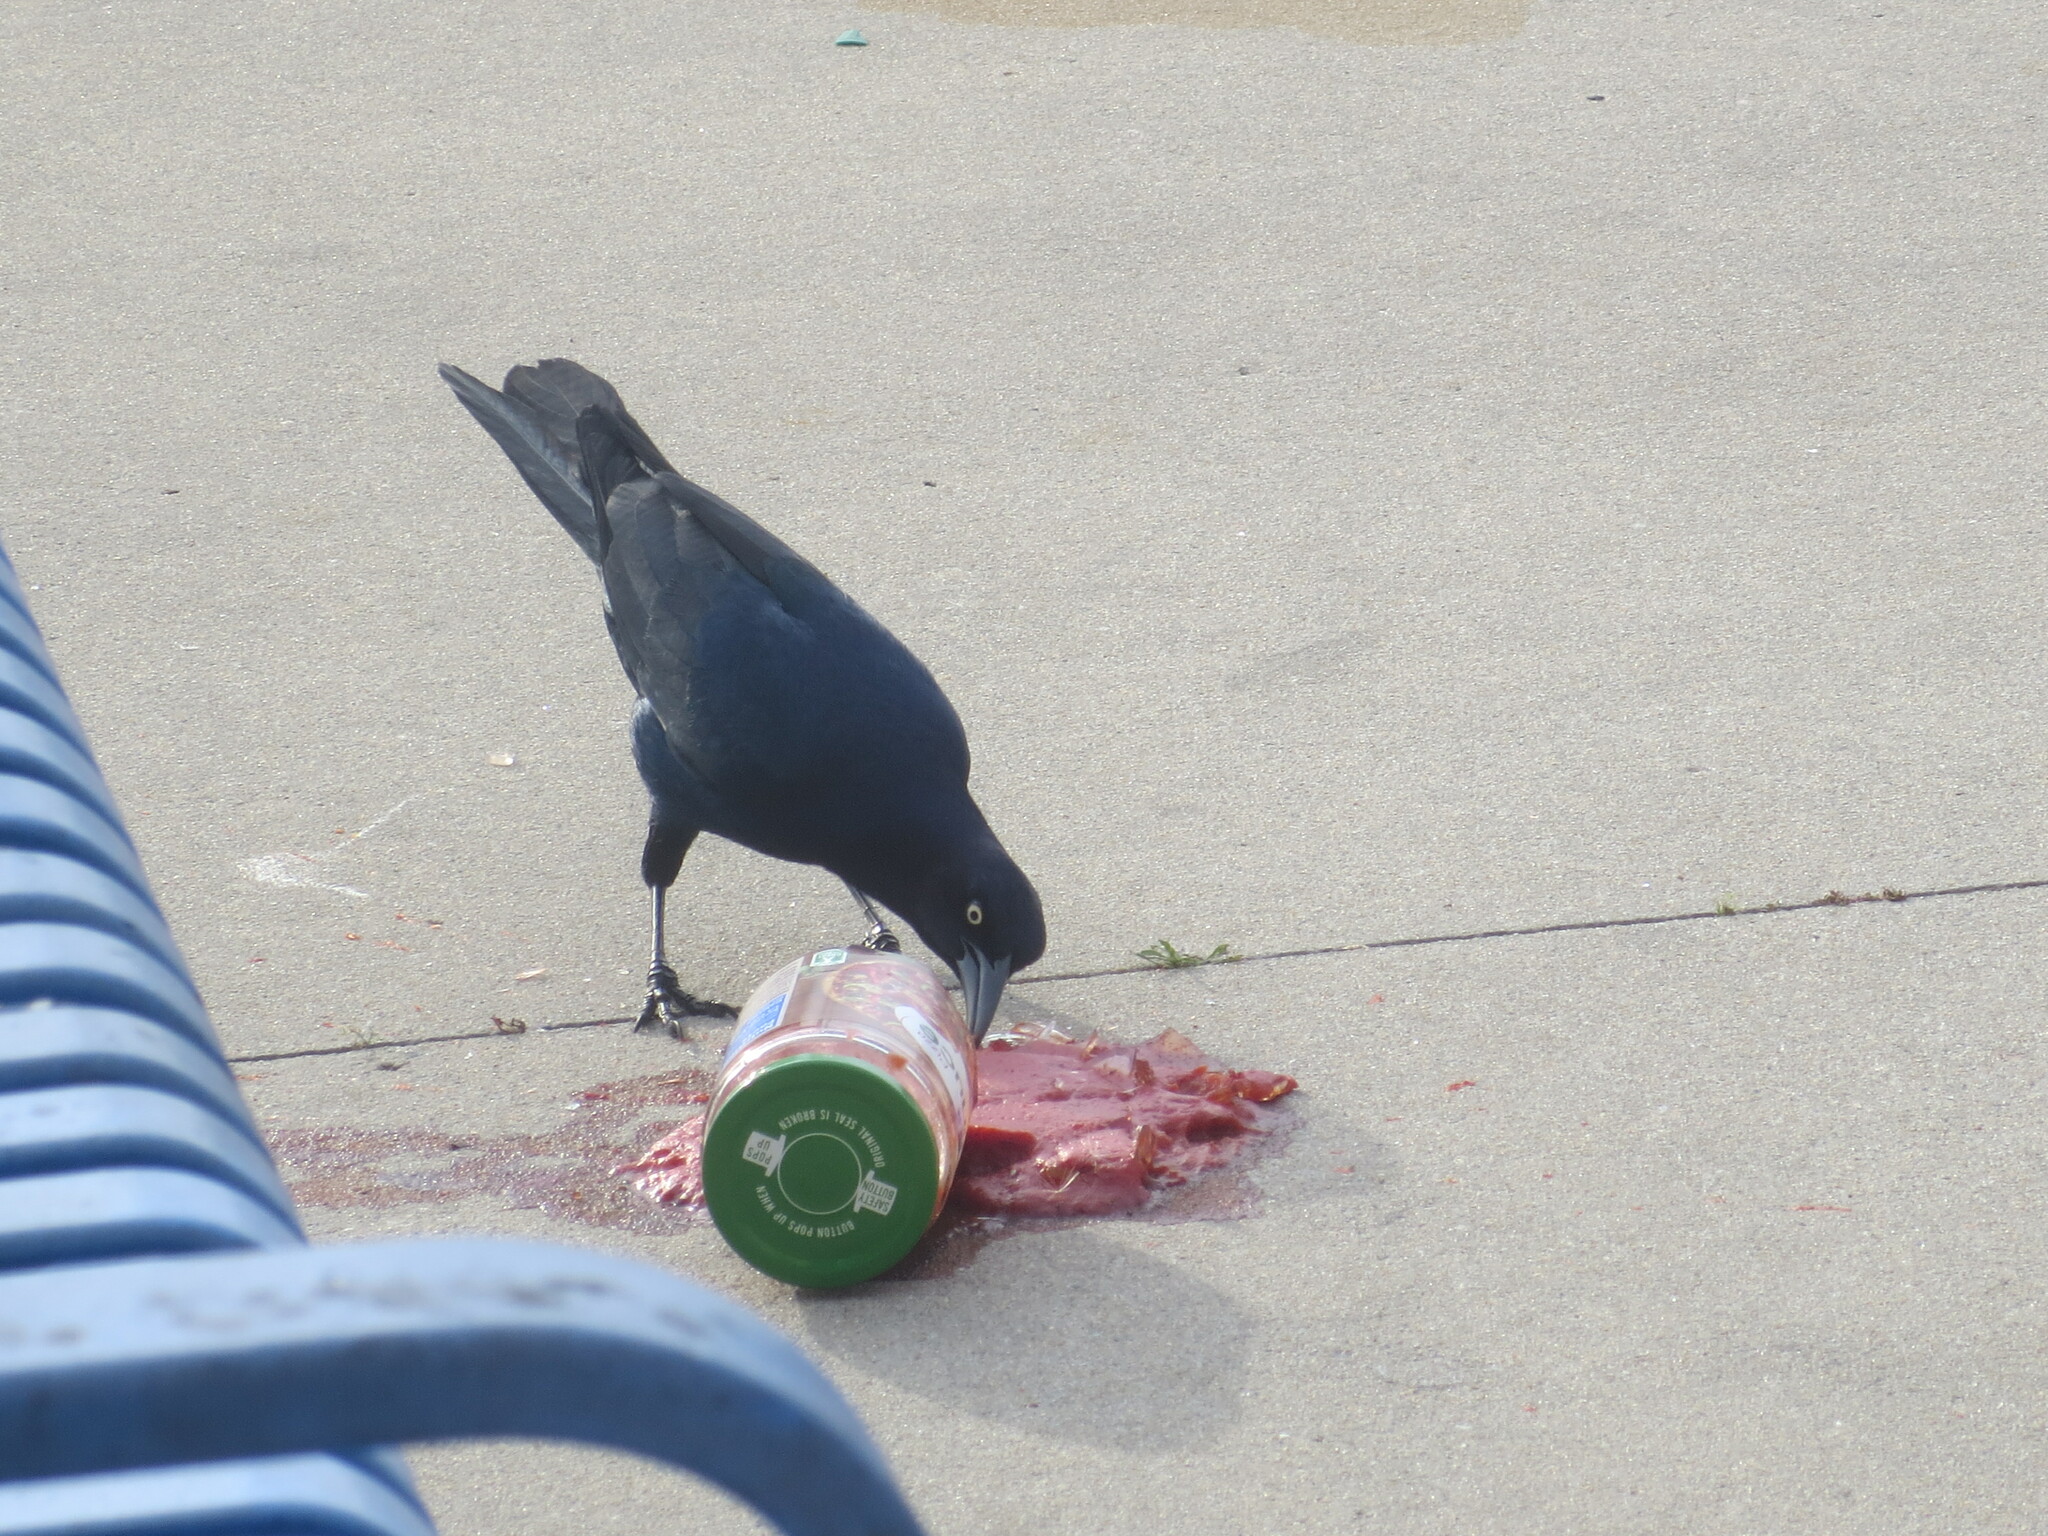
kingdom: Animalia
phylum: Chordata
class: Aves
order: Passeriformes
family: Icteridae
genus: Quiscalus
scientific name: Quiscalus major
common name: Boat-tailed grackle
